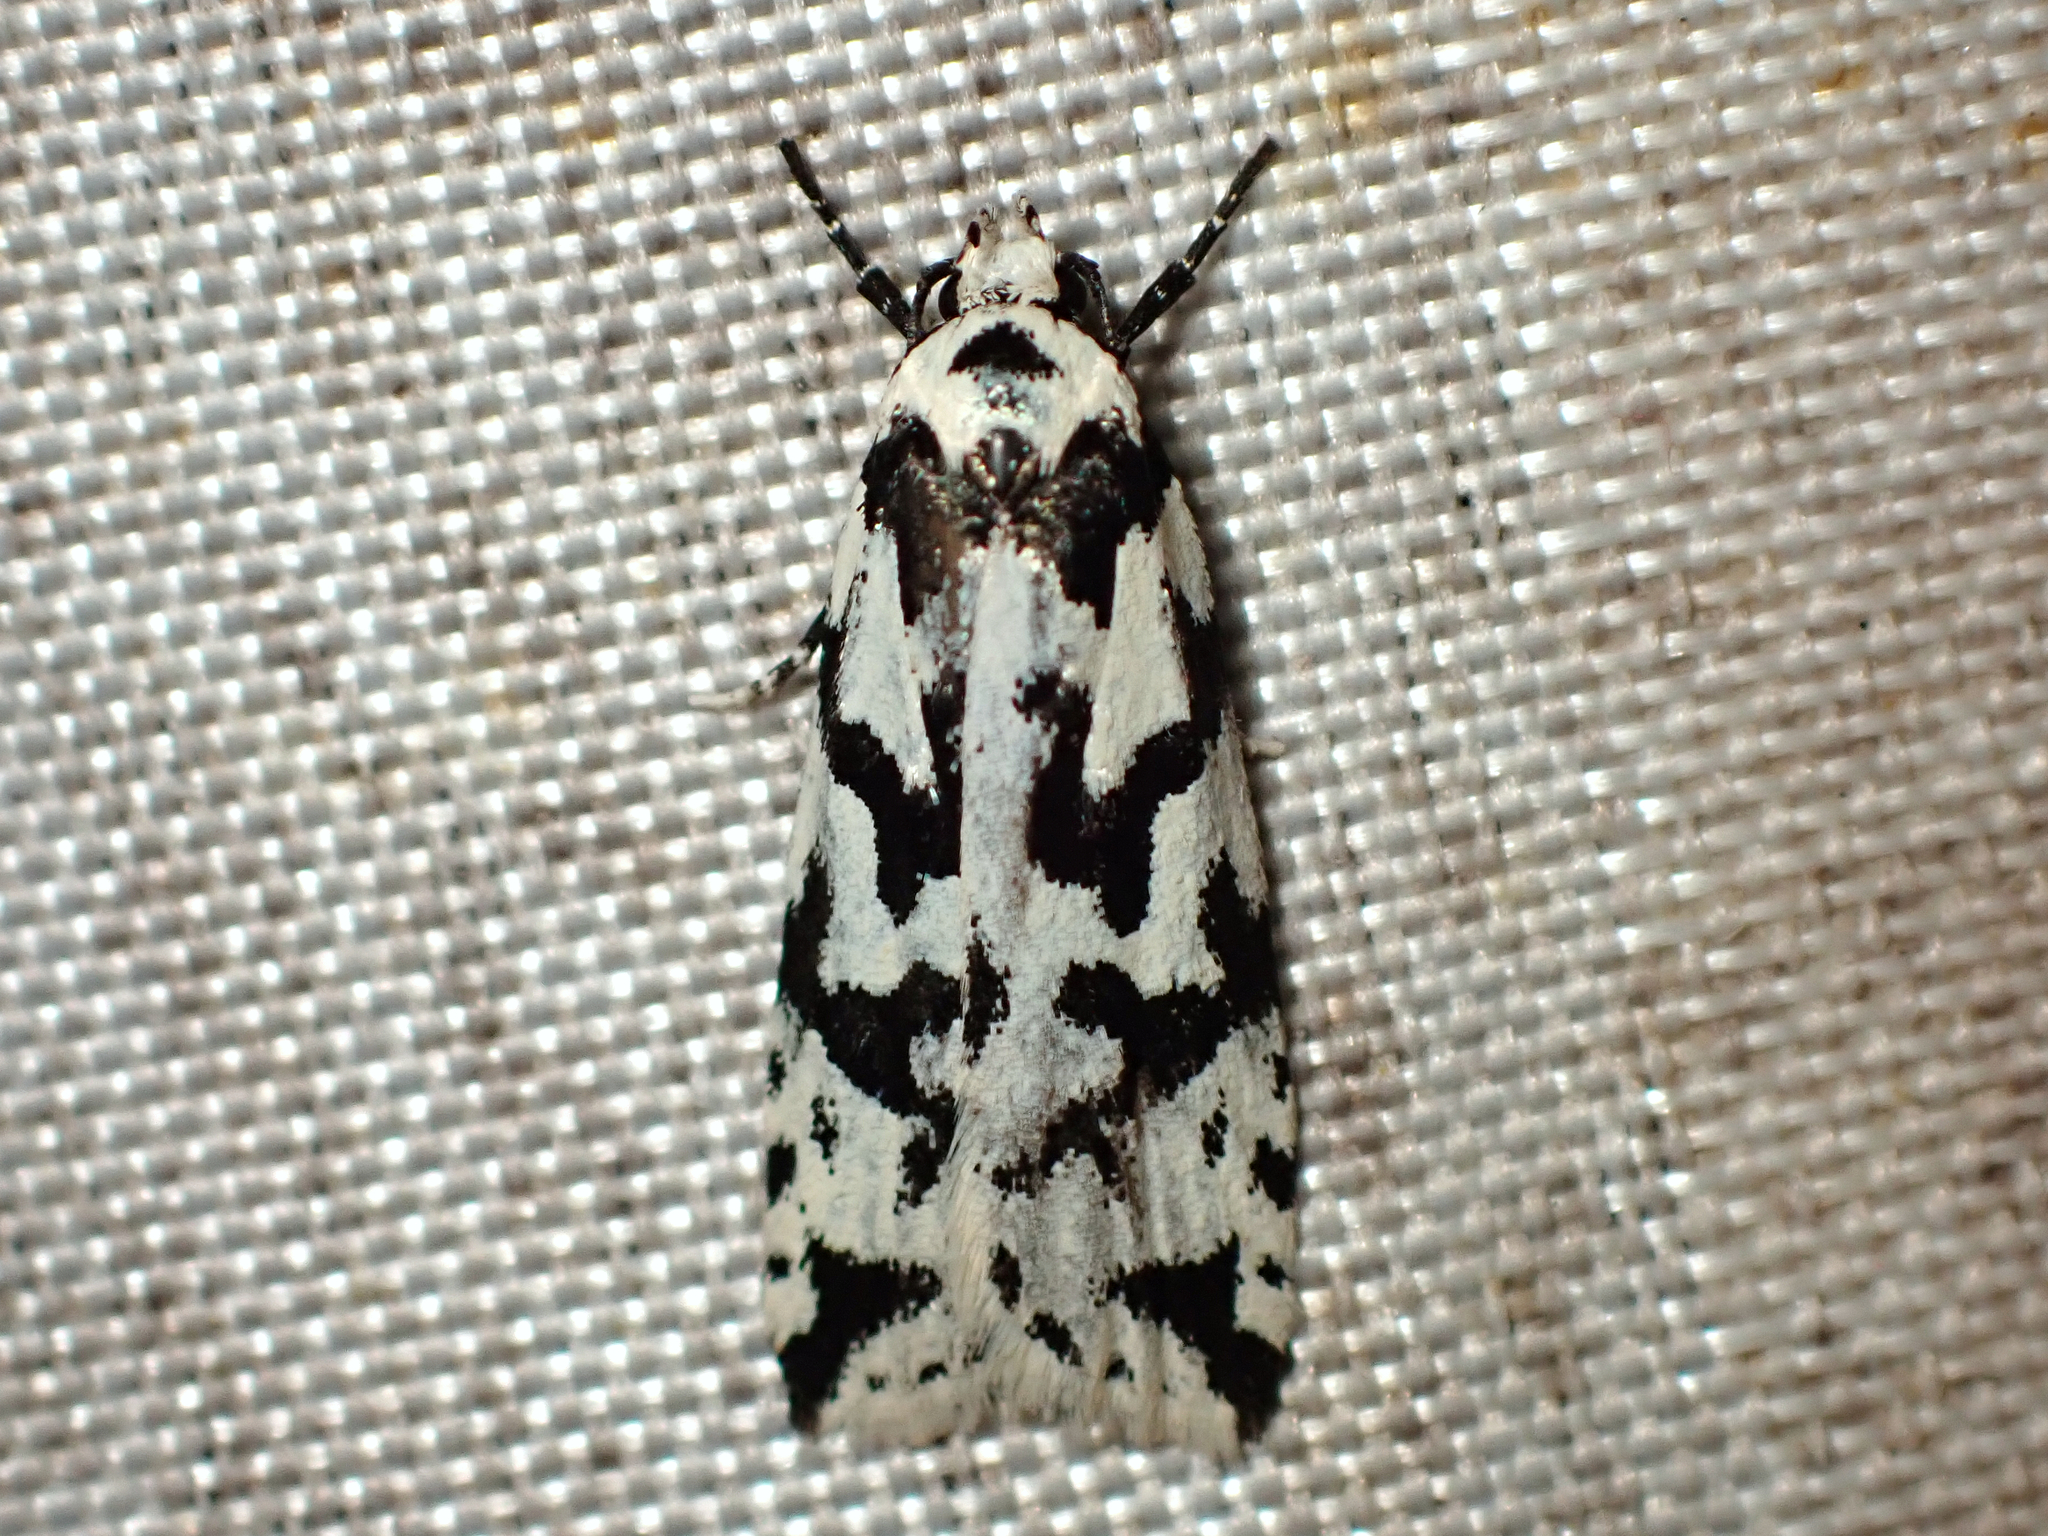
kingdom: Animalia
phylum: Arthropoda
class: Insecta
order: Lepidoptera
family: Oecophoridae
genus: Izatha
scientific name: Izatha acmonias
